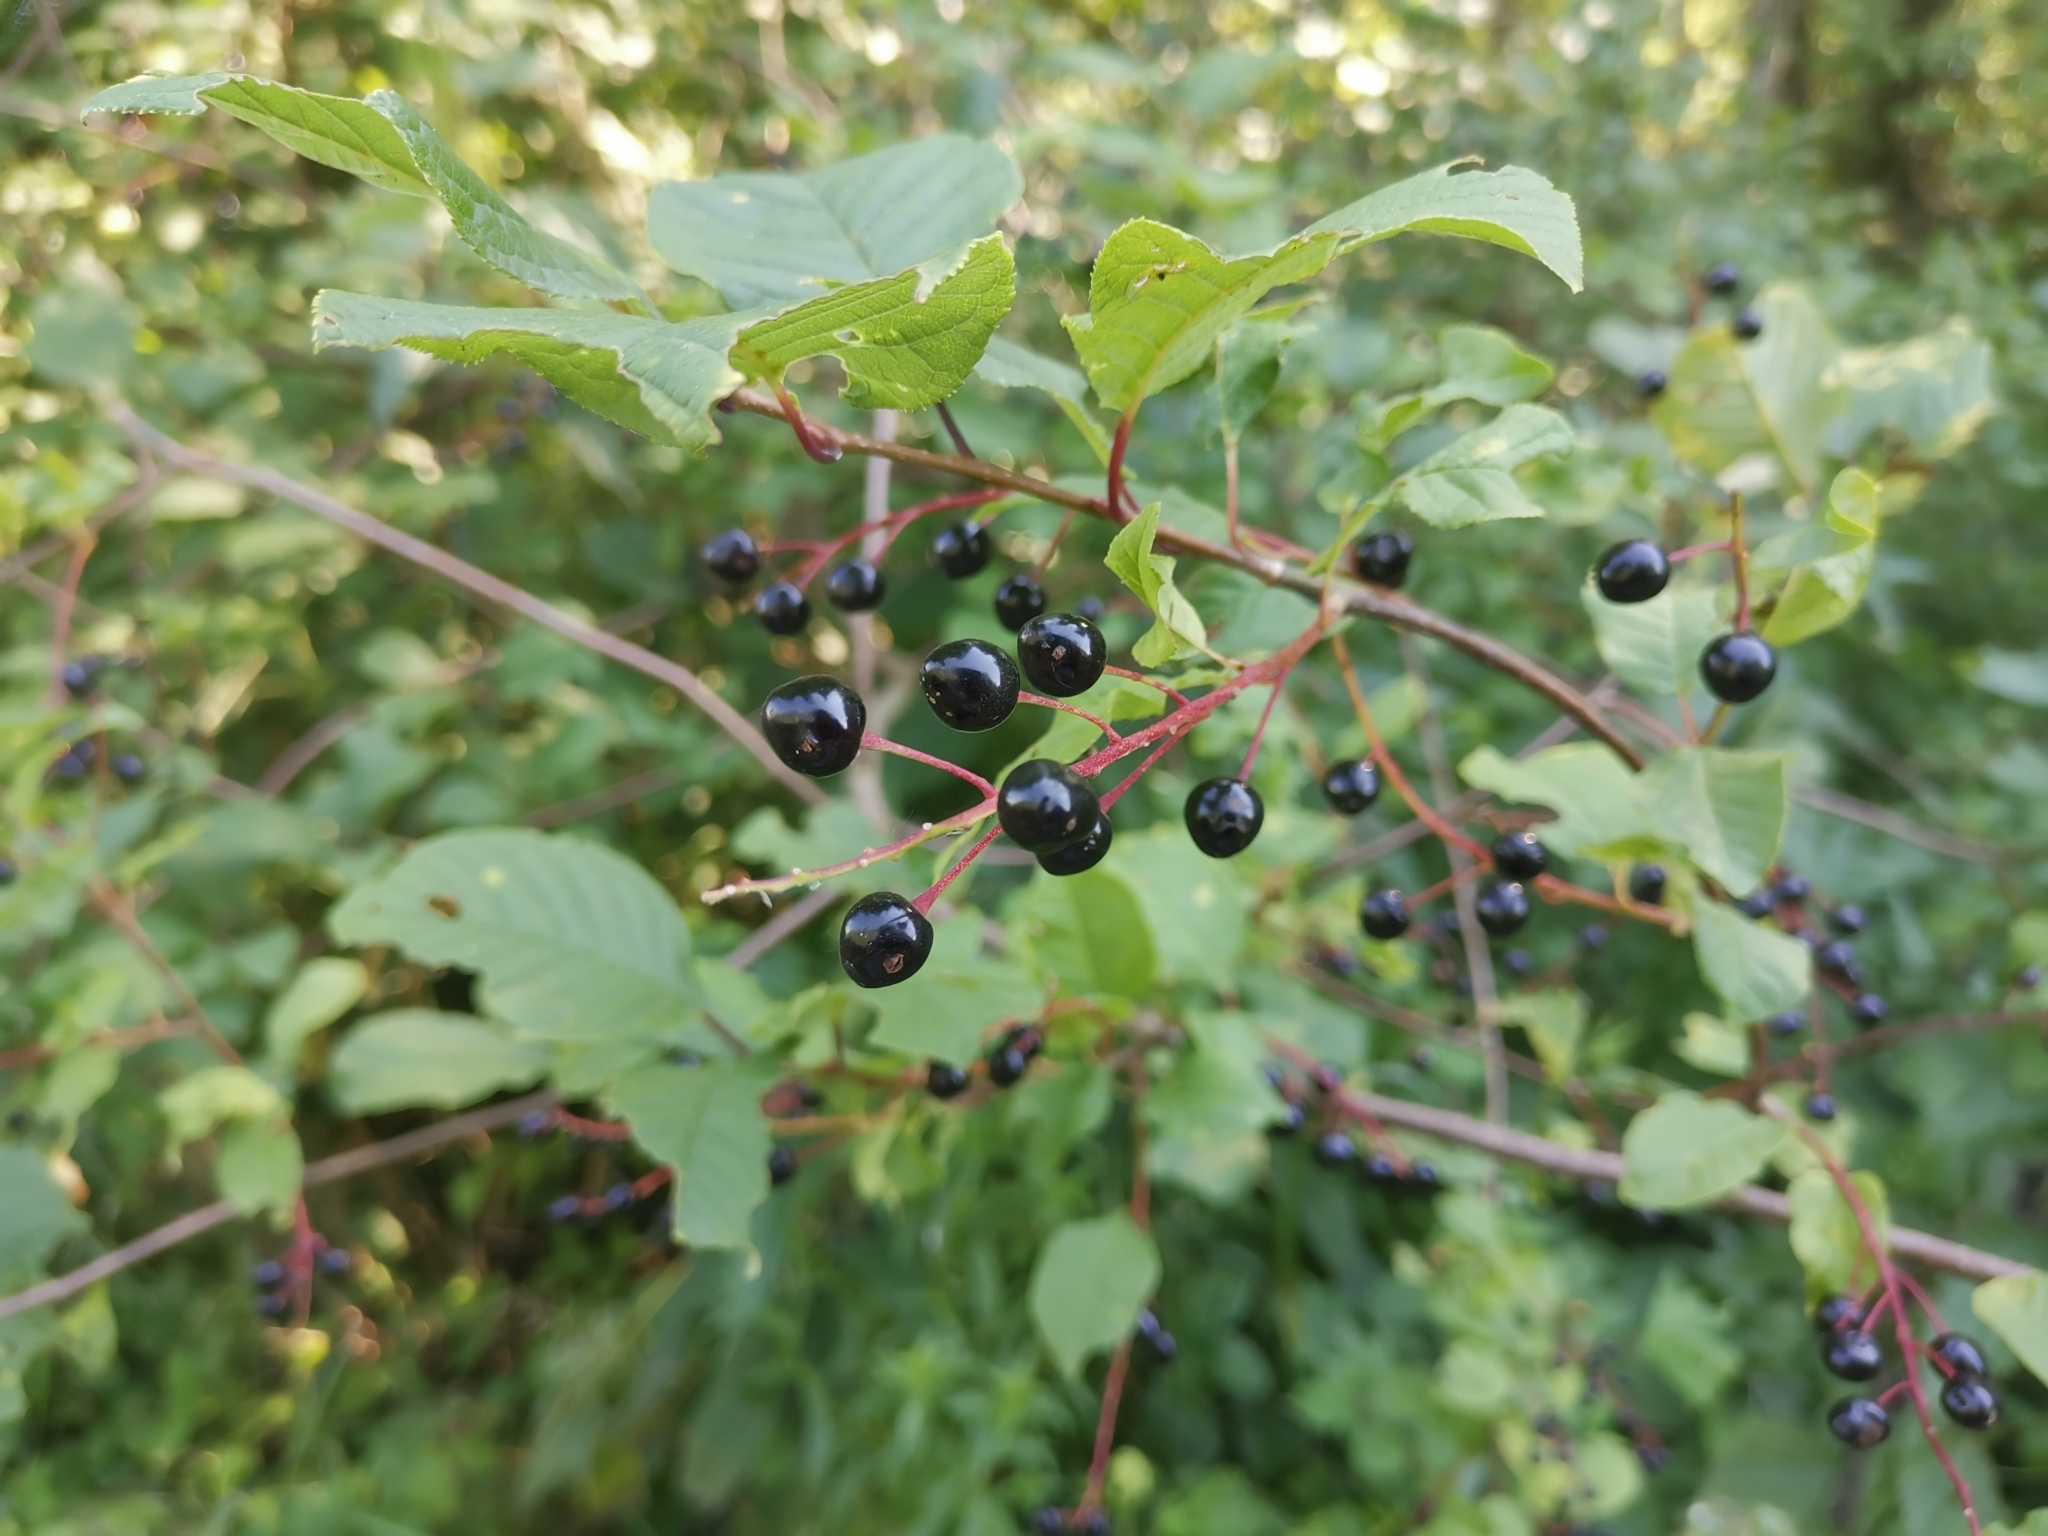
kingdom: Plantae
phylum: Tracheophyta
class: Magnoliopsida
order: Rosales
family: Rosaceae
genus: Prunus
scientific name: Prunus padus
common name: Bird cherry
